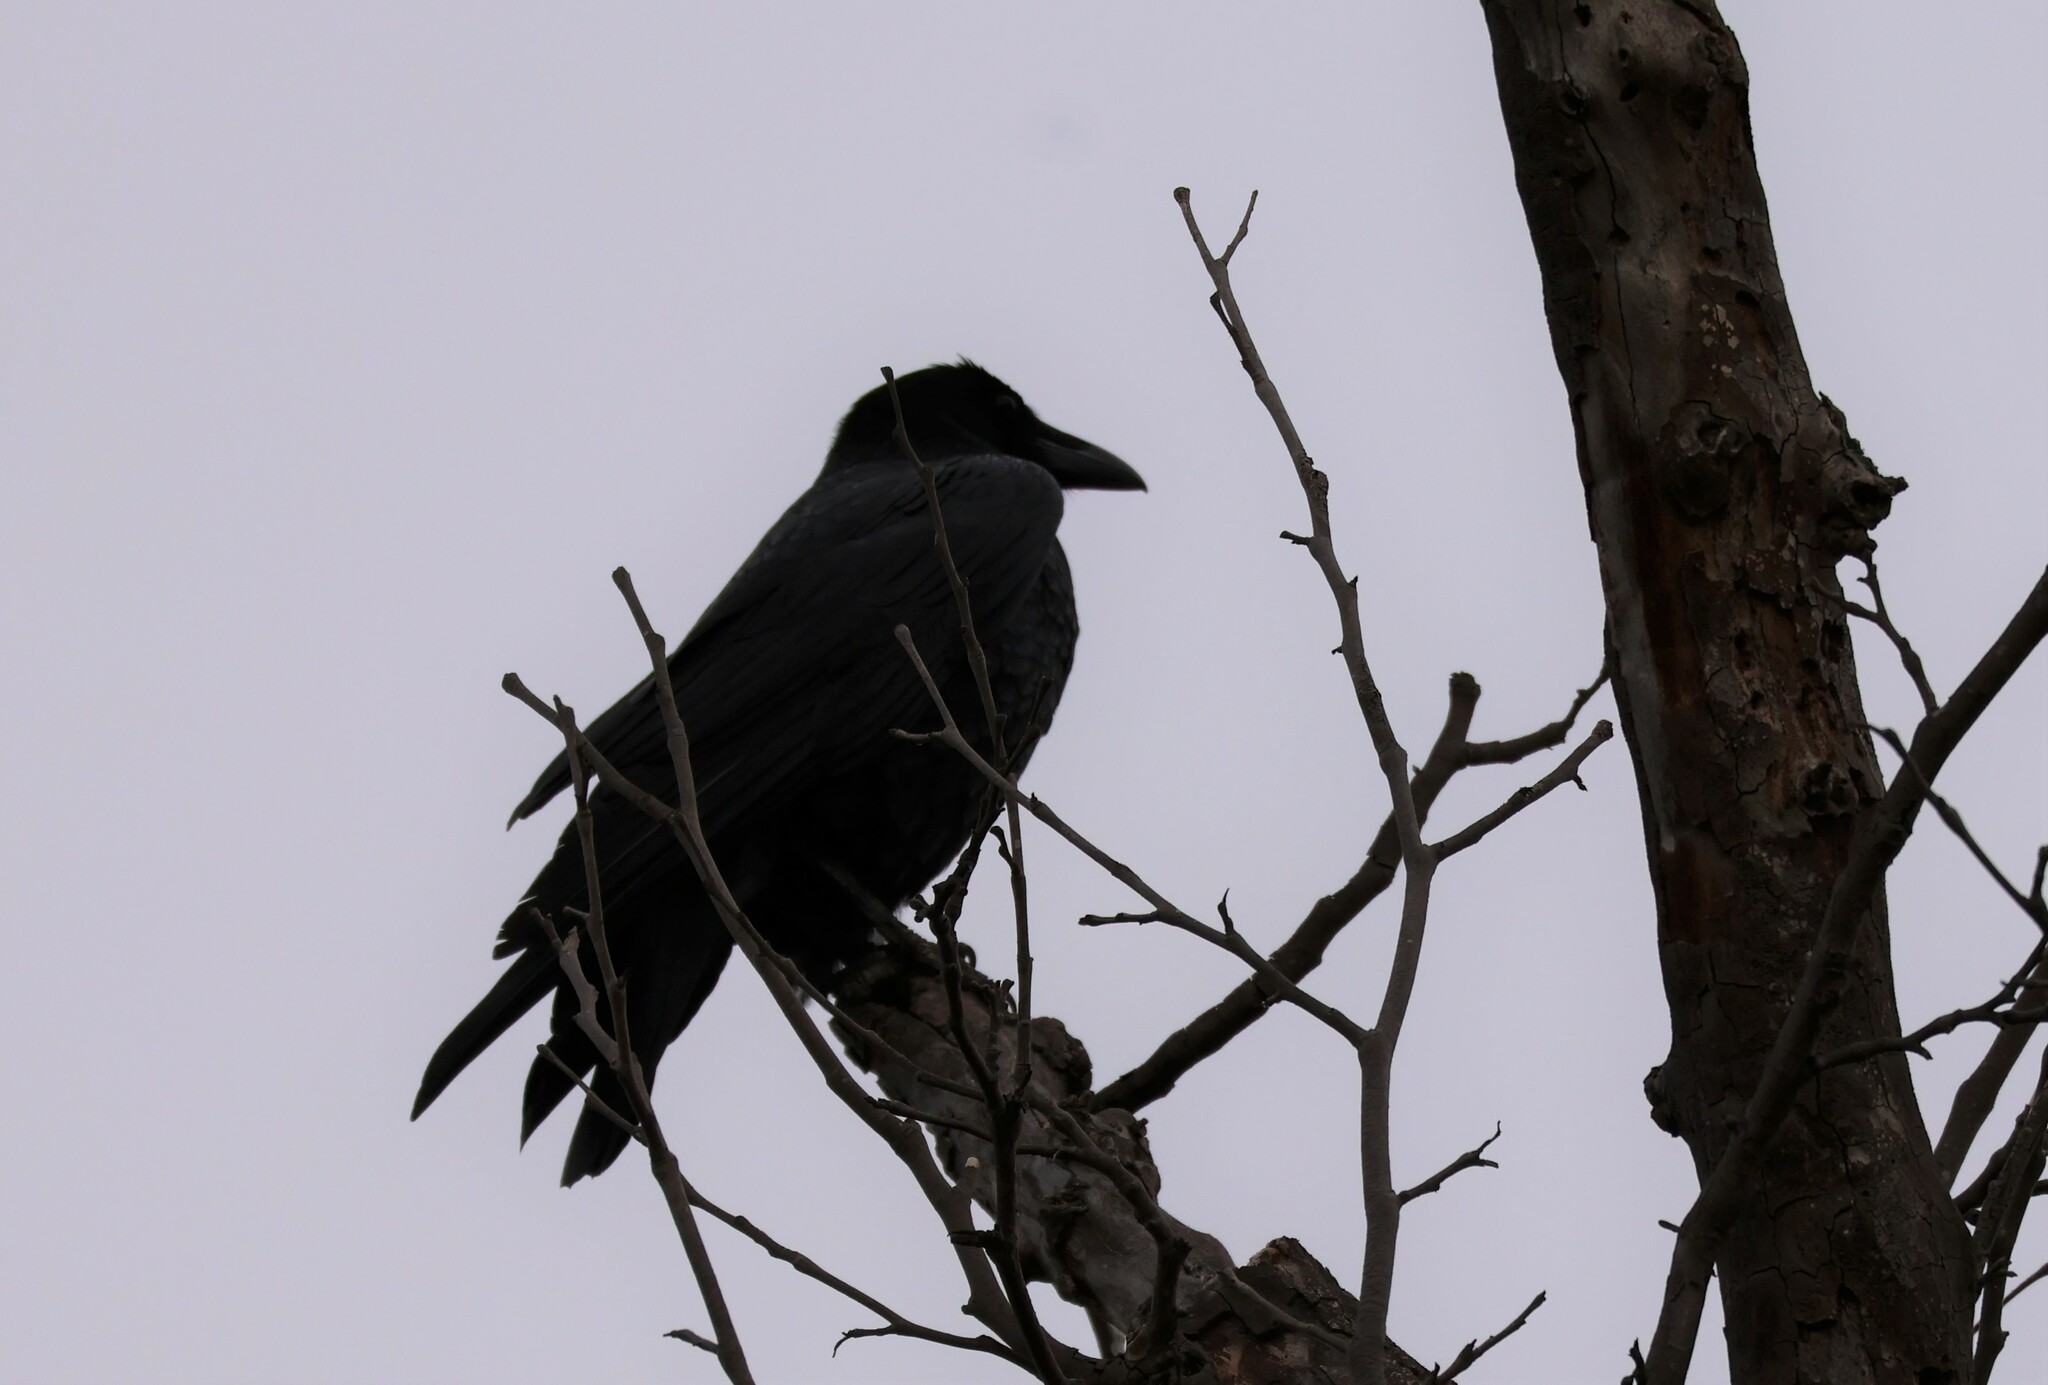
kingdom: Animalia
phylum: Chordata
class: Aves
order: Passeriformes
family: Corvidae
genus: Corvus
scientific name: Corvus corax
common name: Common raven
